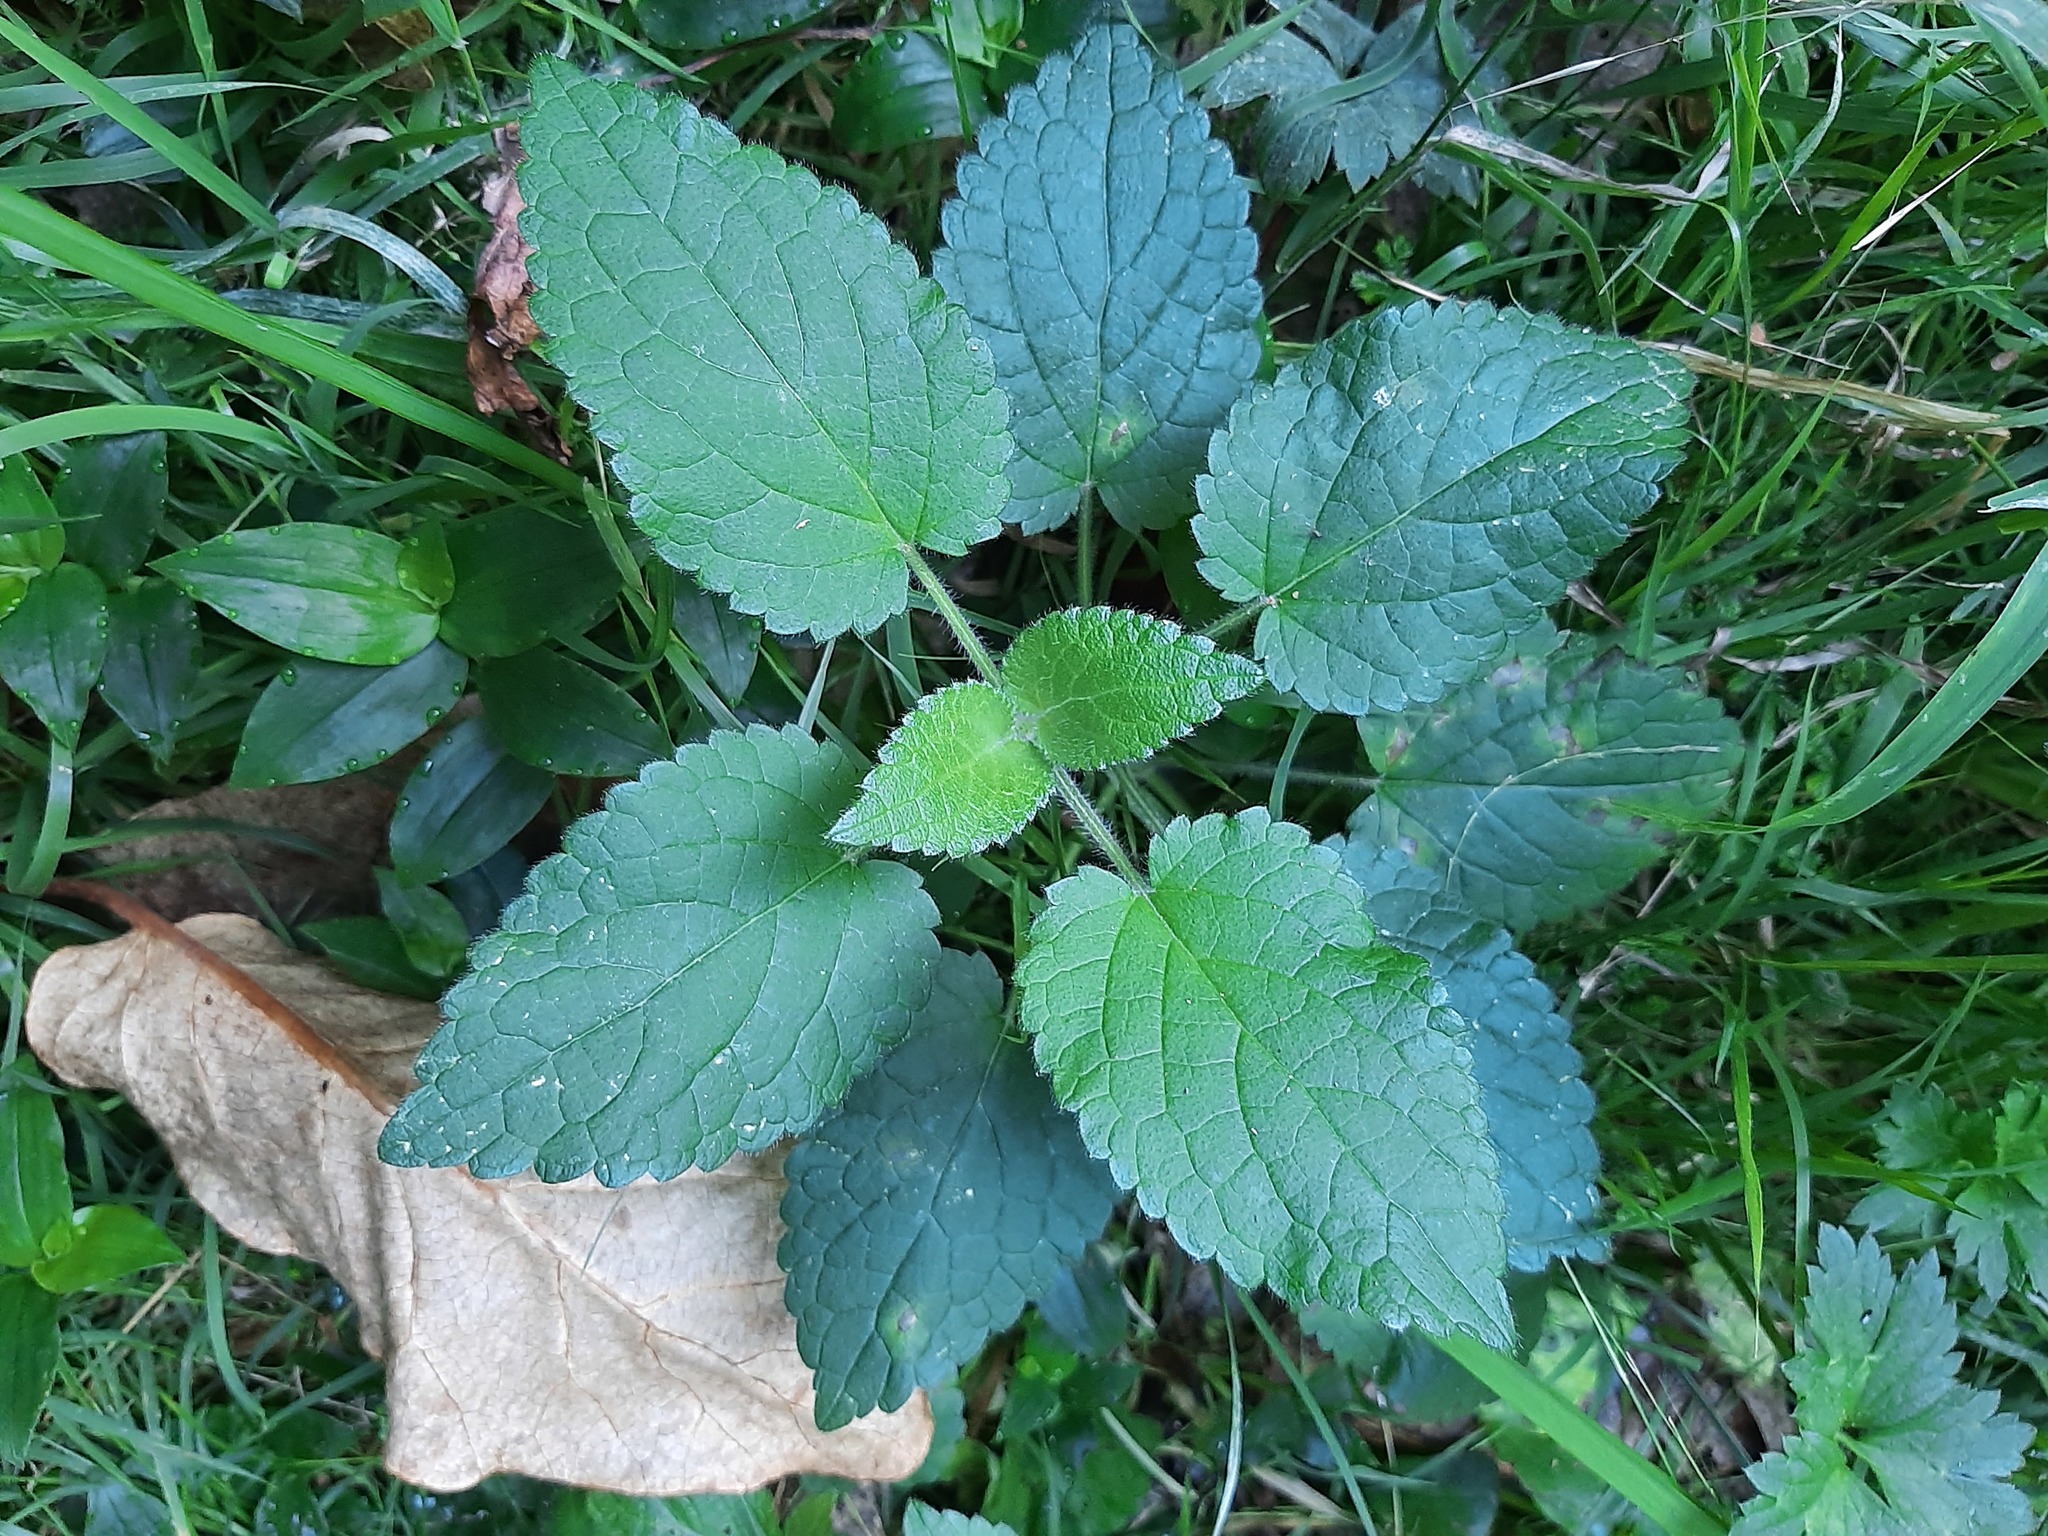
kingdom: Plantae
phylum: Tracheophyta
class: Magnoliopsida
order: Lamiales
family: Lamiaceae
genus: Stachys
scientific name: Stachys sylvatica
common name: Hedge woundwort
